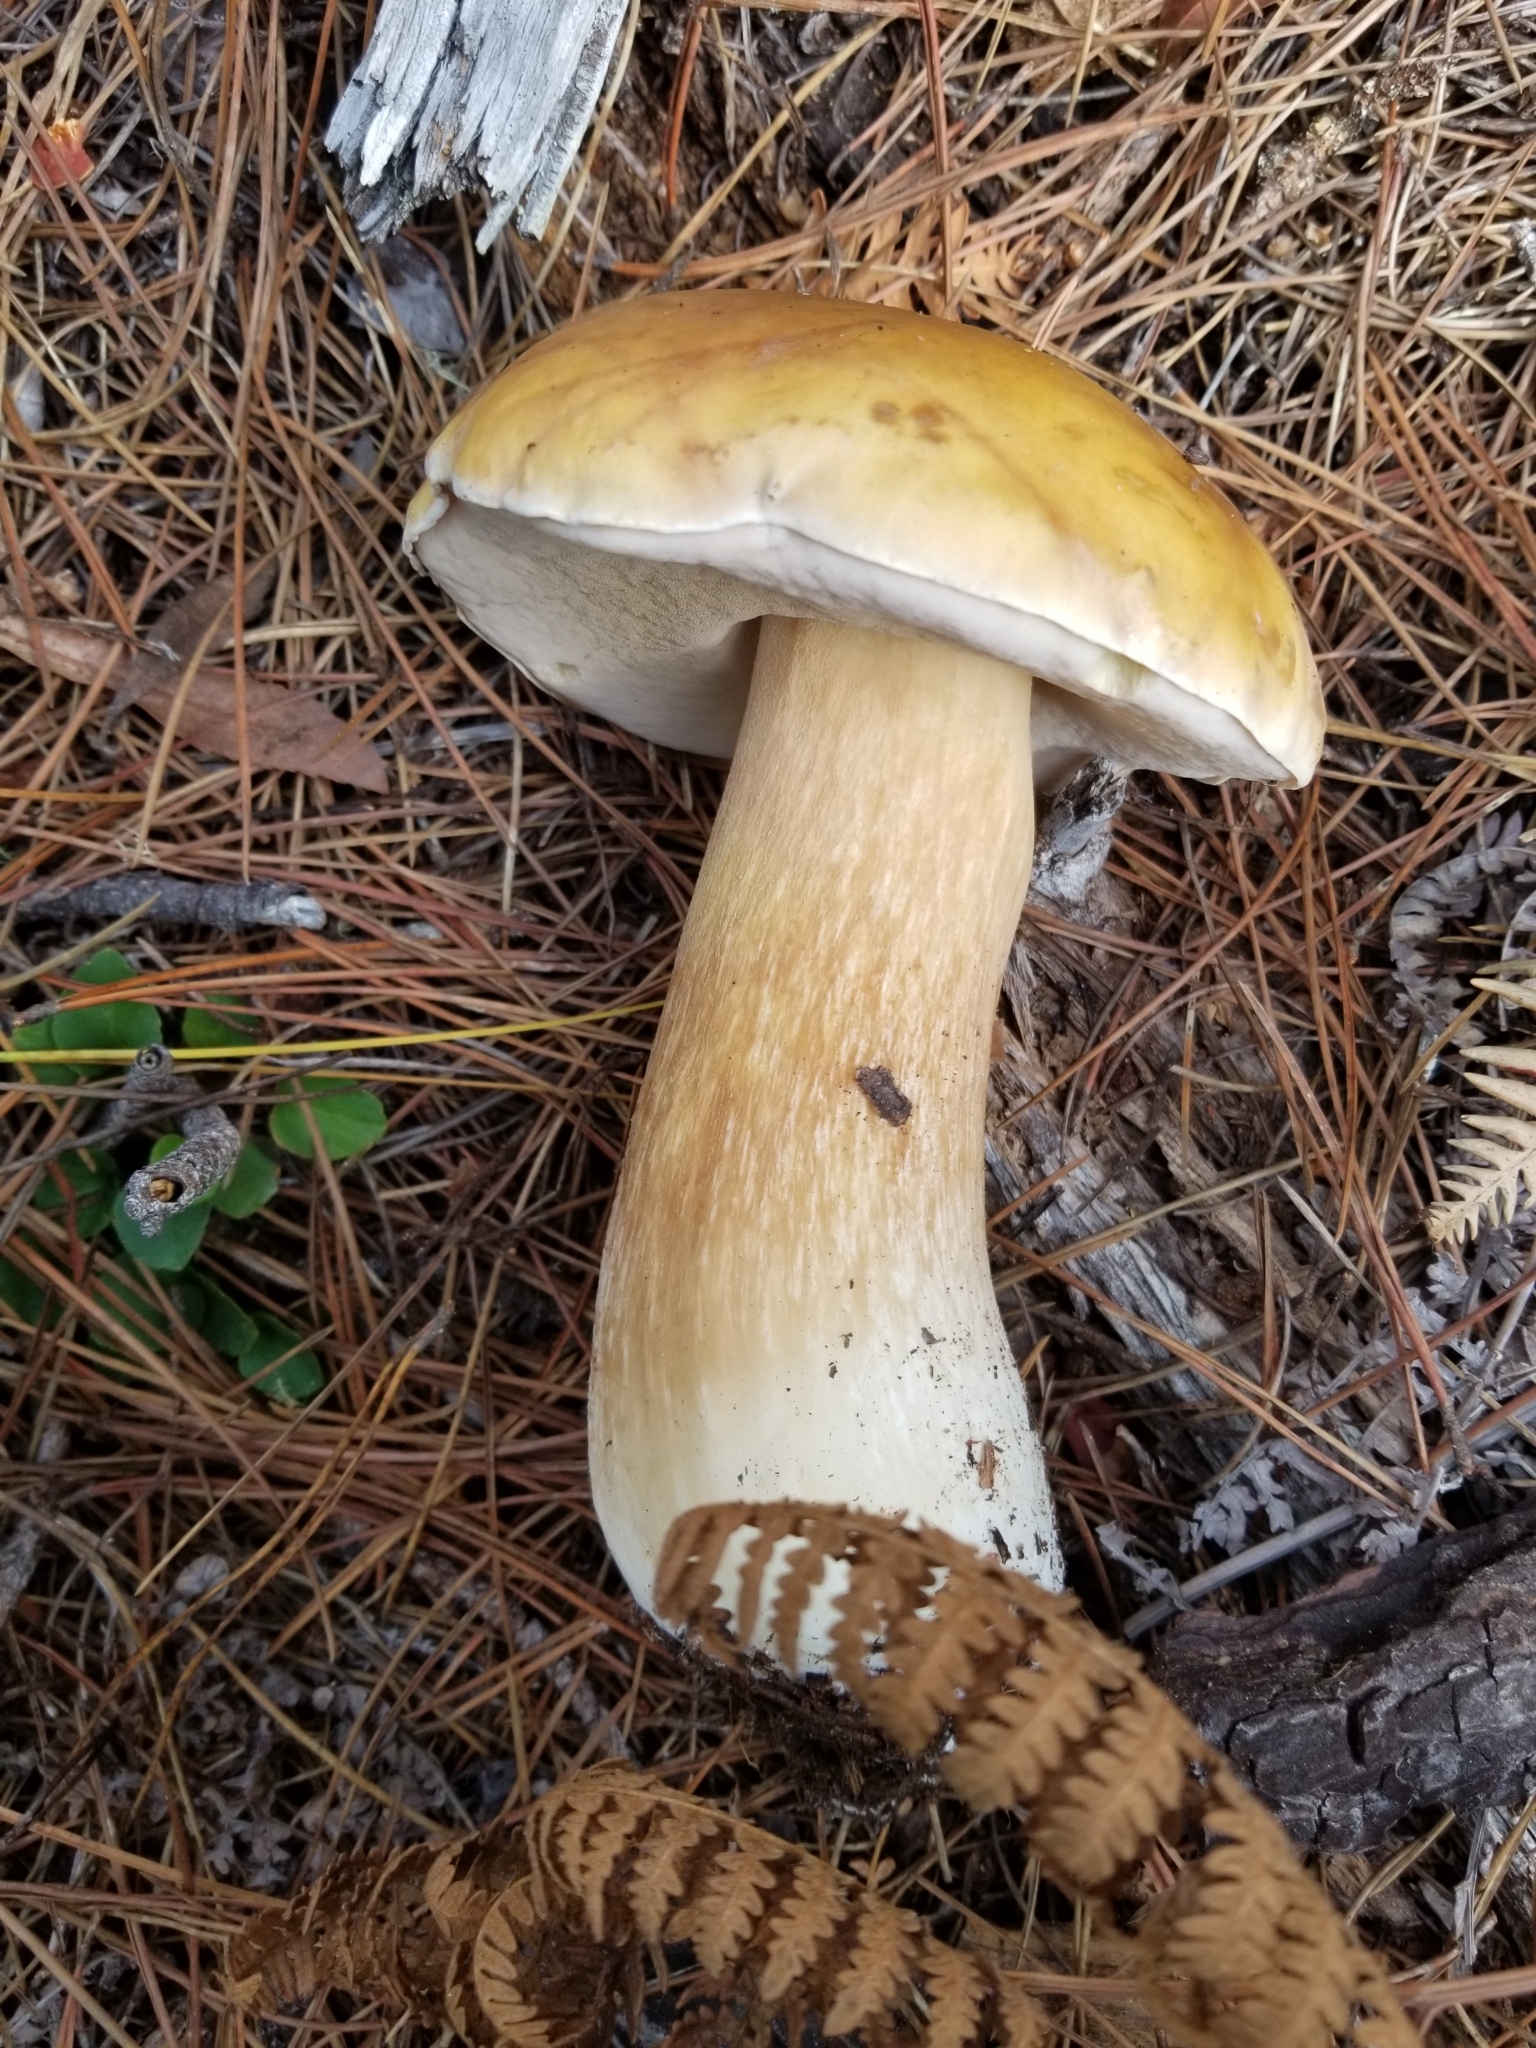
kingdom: Fungi
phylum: Basidiomycota
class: Agaricomycetes
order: Boletales
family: Boletaceae
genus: Boletus
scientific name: Boletus edulis
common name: Cep
